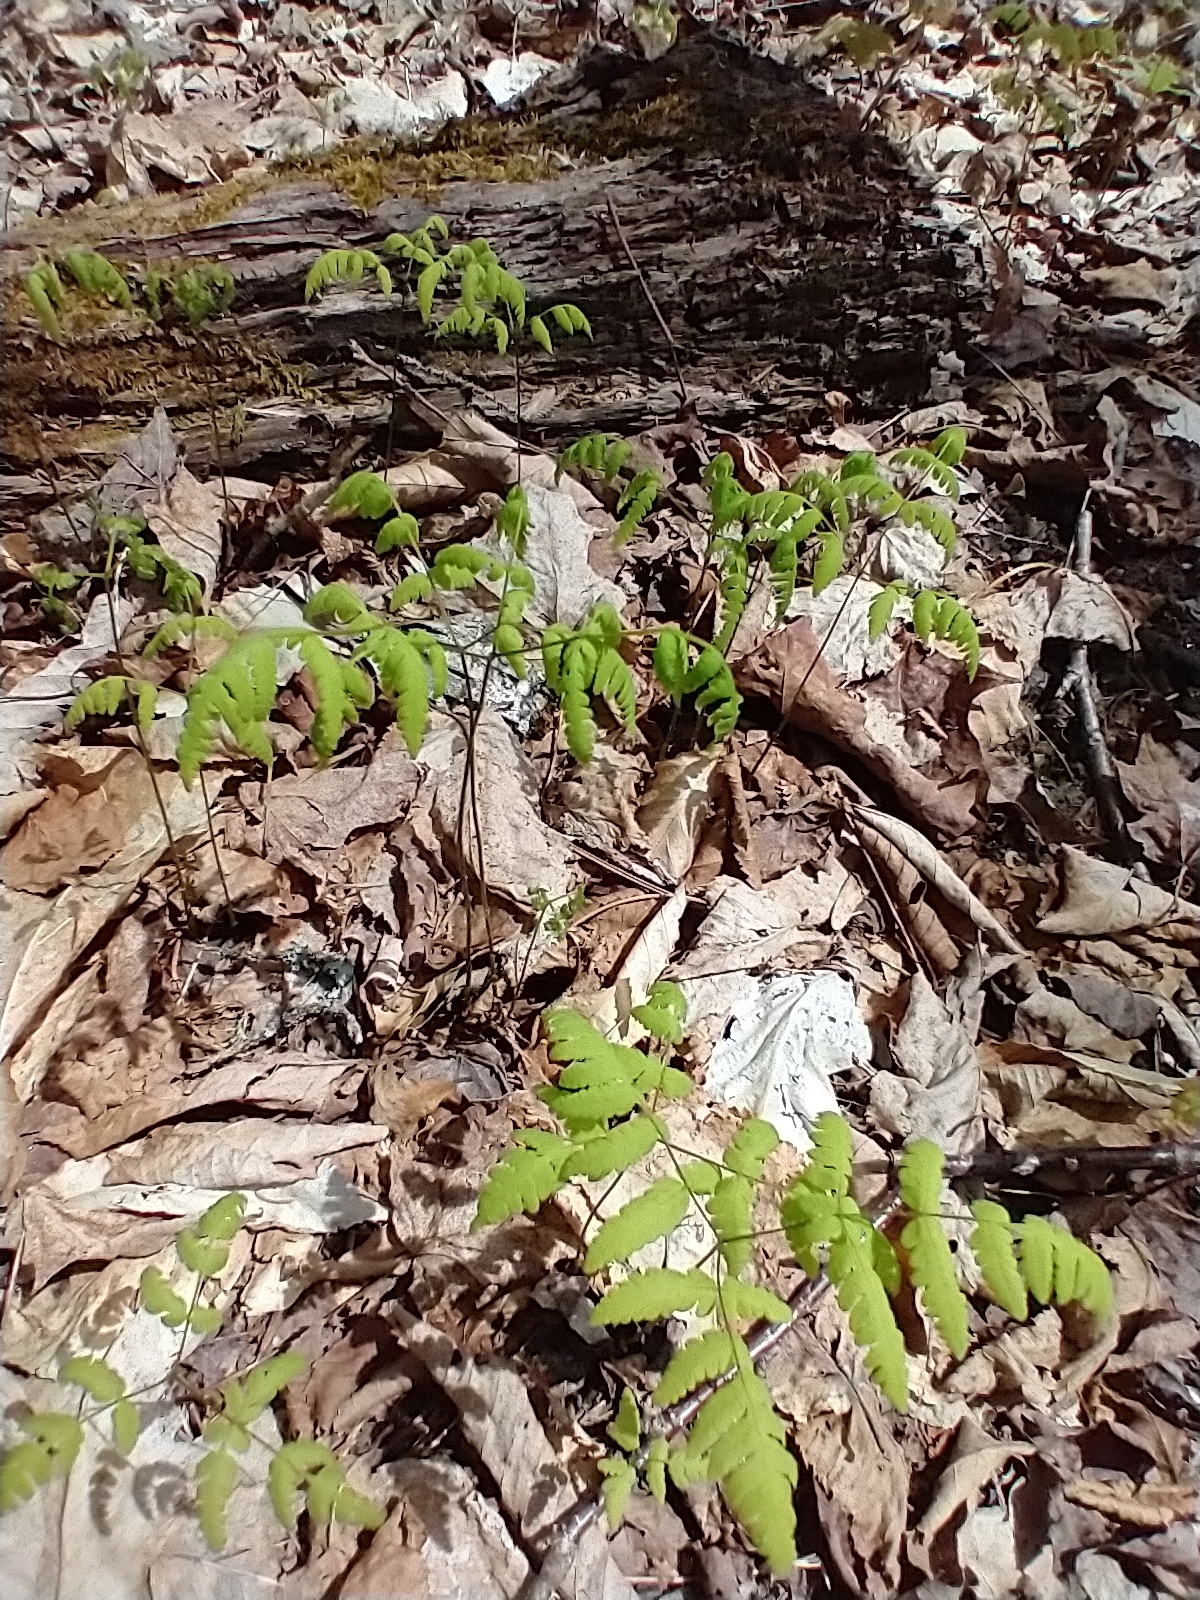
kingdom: Plantae
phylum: Tracheophyta
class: Polypodiopsida
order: Polypodiales
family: Cystopteridaceae
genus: Gymnocarpium
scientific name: Gymnocarpium dryopteris
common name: Oak fern
